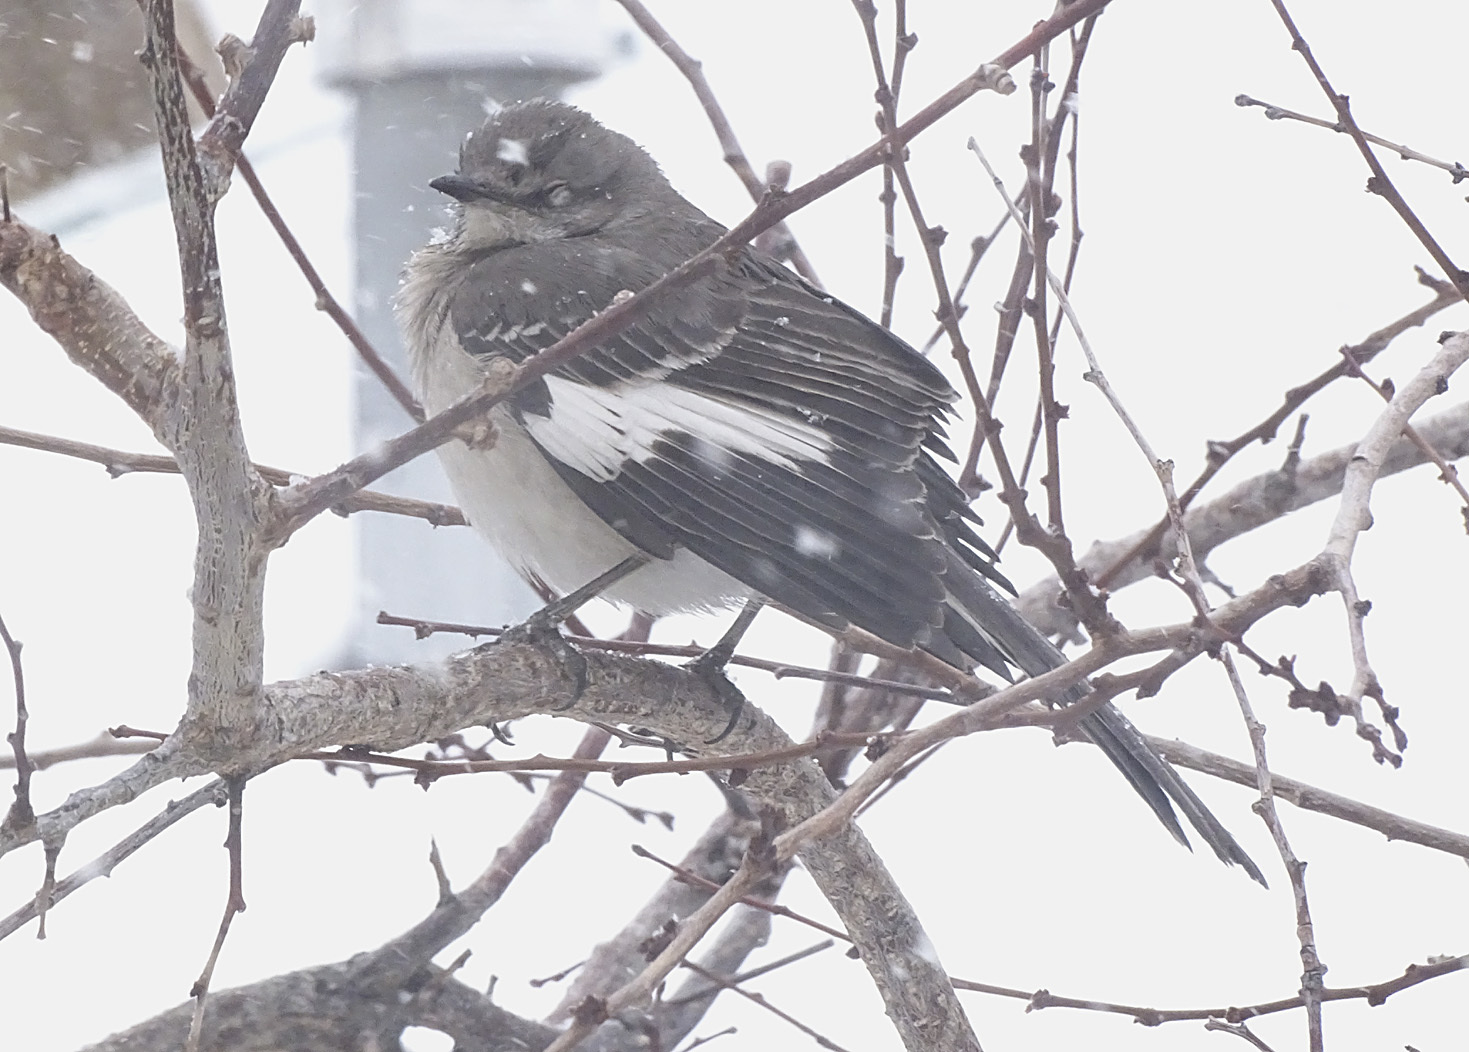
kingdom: Animalia
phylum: Chordata
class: Aves
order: Passeriformes
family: Mimidae
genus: Mimus
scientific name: Mimus polyglottos
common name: Northern mockingbird
